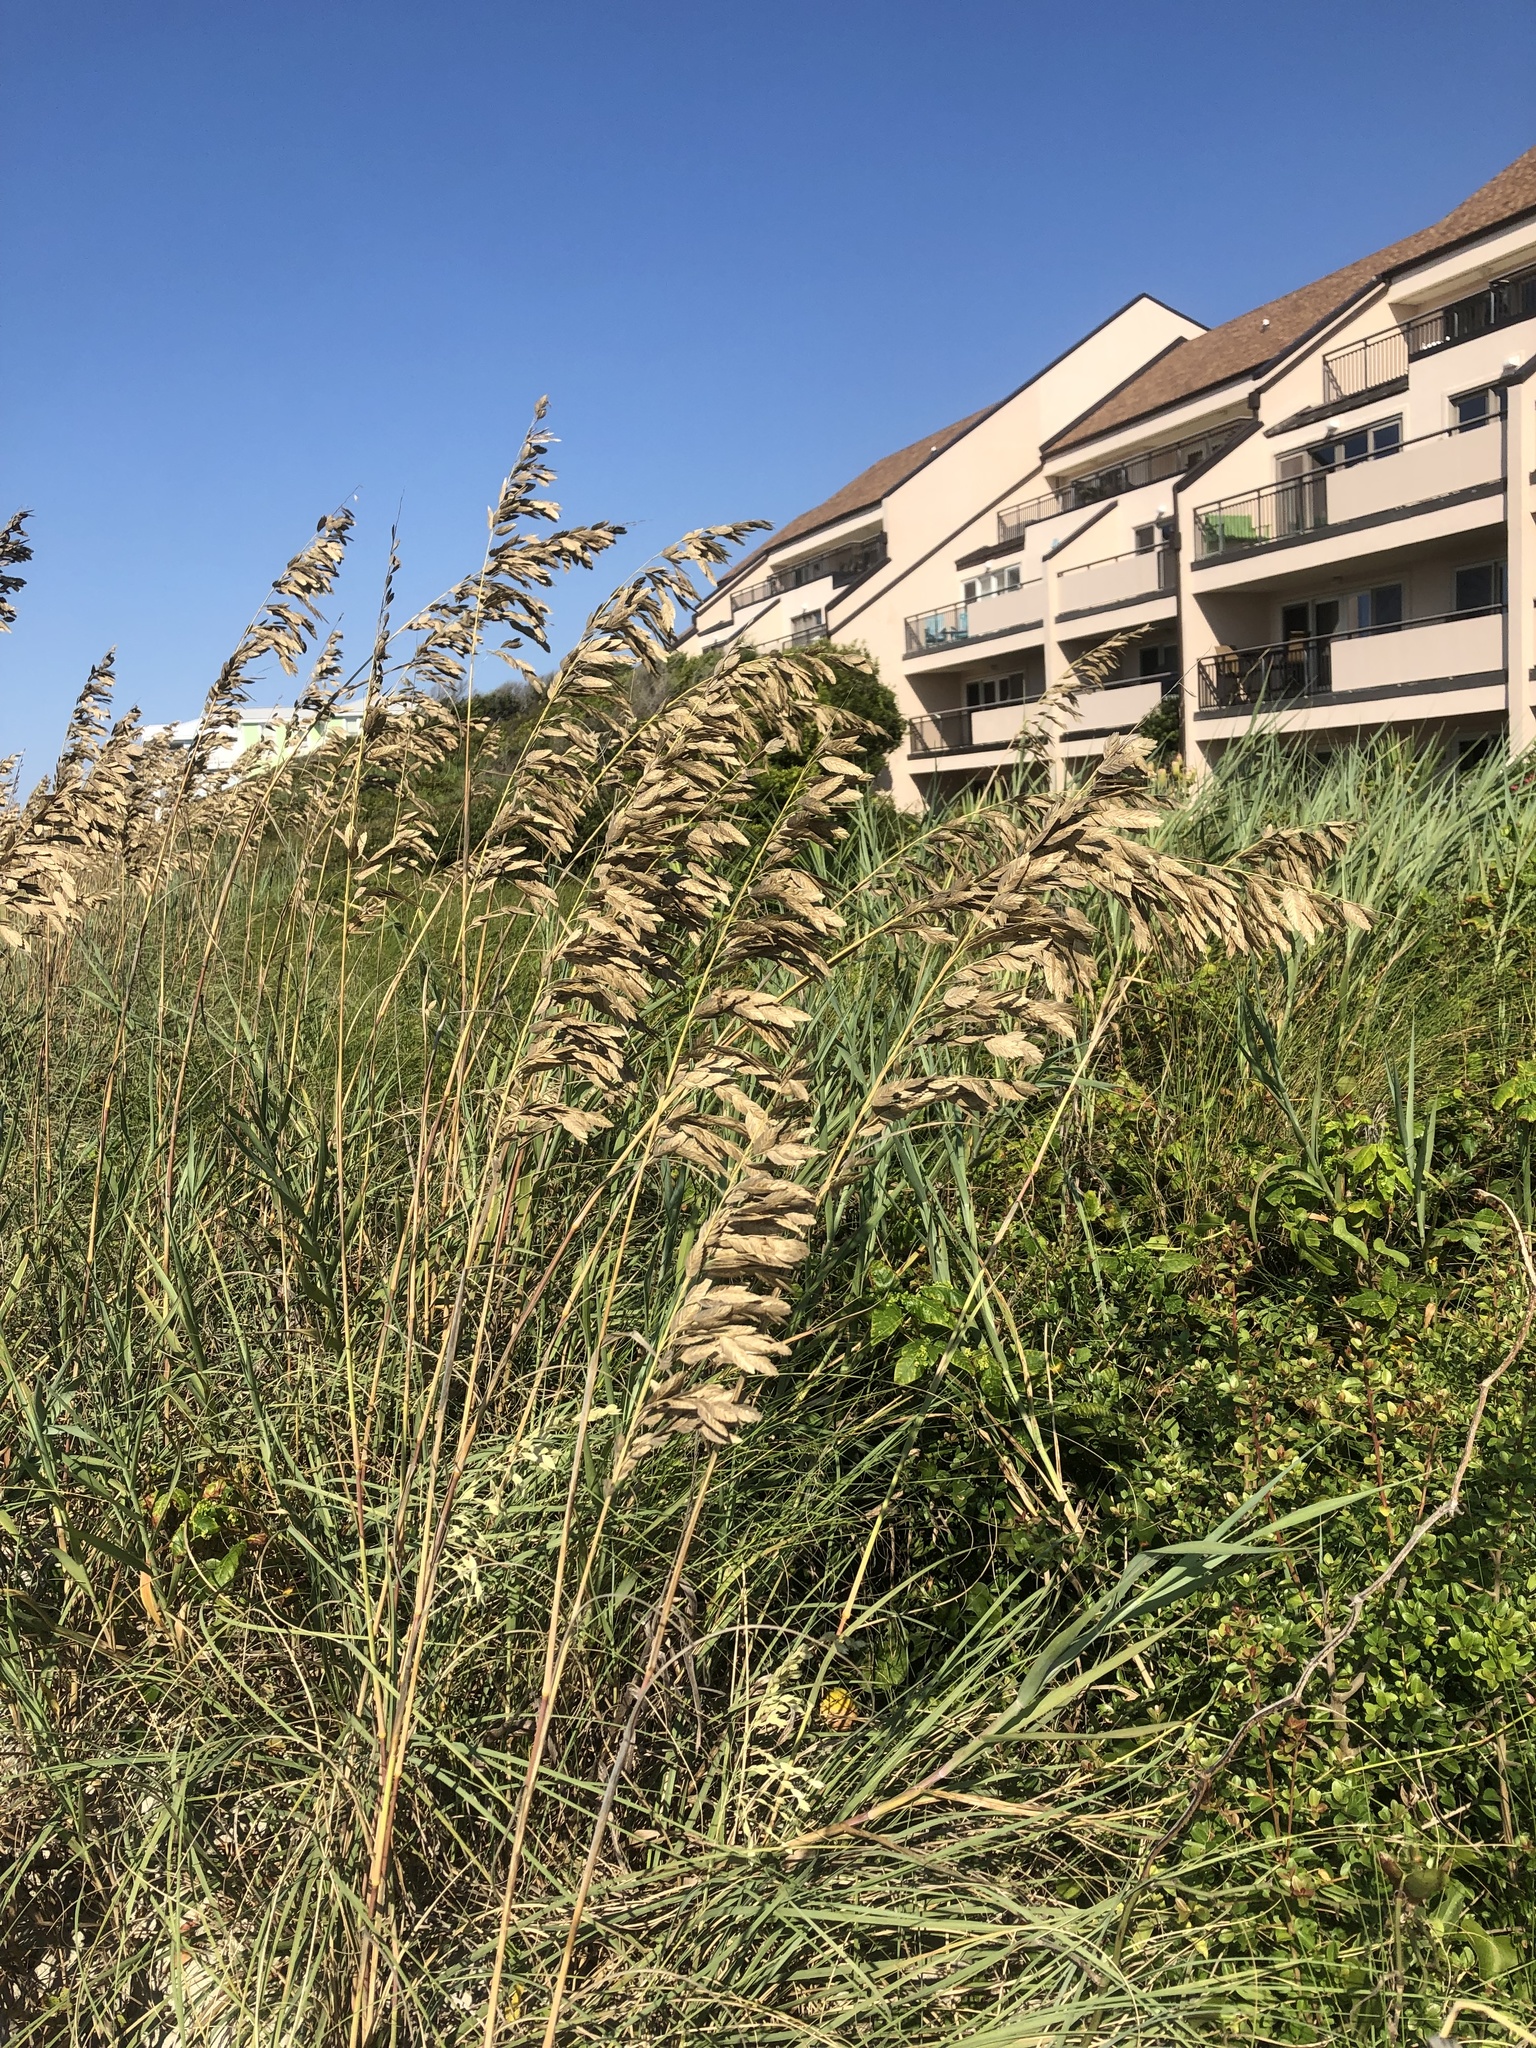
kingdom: Plantae
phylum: Tracheophyta
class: Liliopsida
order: Poales
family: Poaceae
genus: Uniola
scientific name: Uniola paniculata
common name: Seaside-oats
